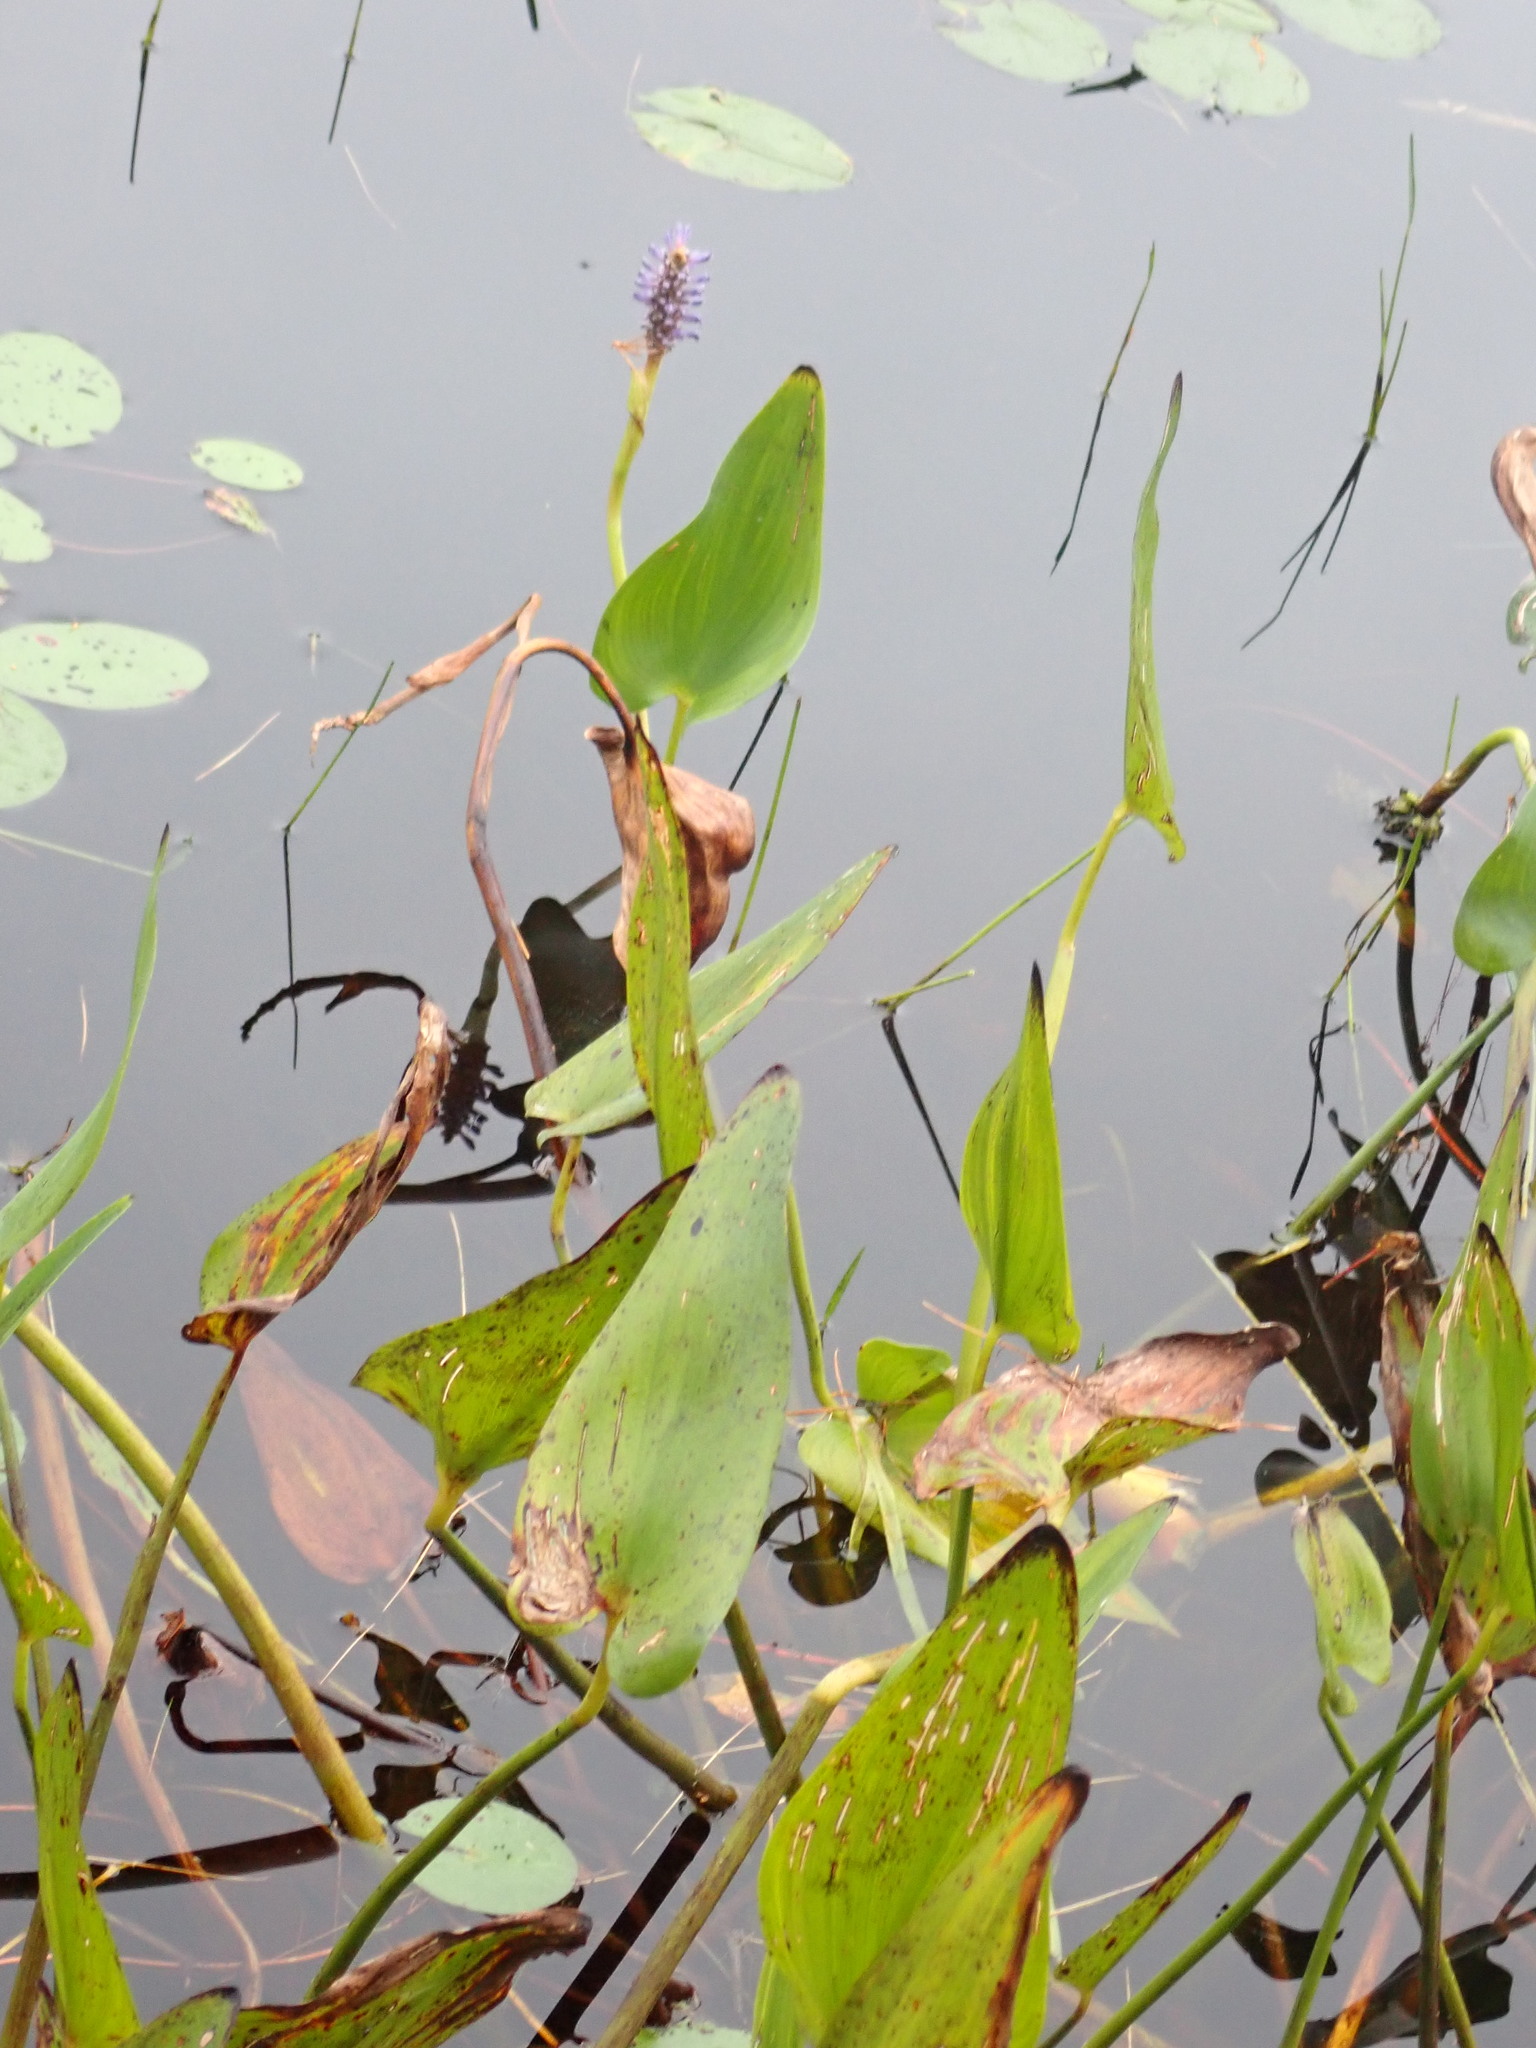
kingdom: Plantae
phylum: Tracheophyta
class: Liliopsida
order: Commelinales
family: Pontederiaceae
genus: Pontederia
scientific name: Pontederia cordata
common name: Pickerelweed
